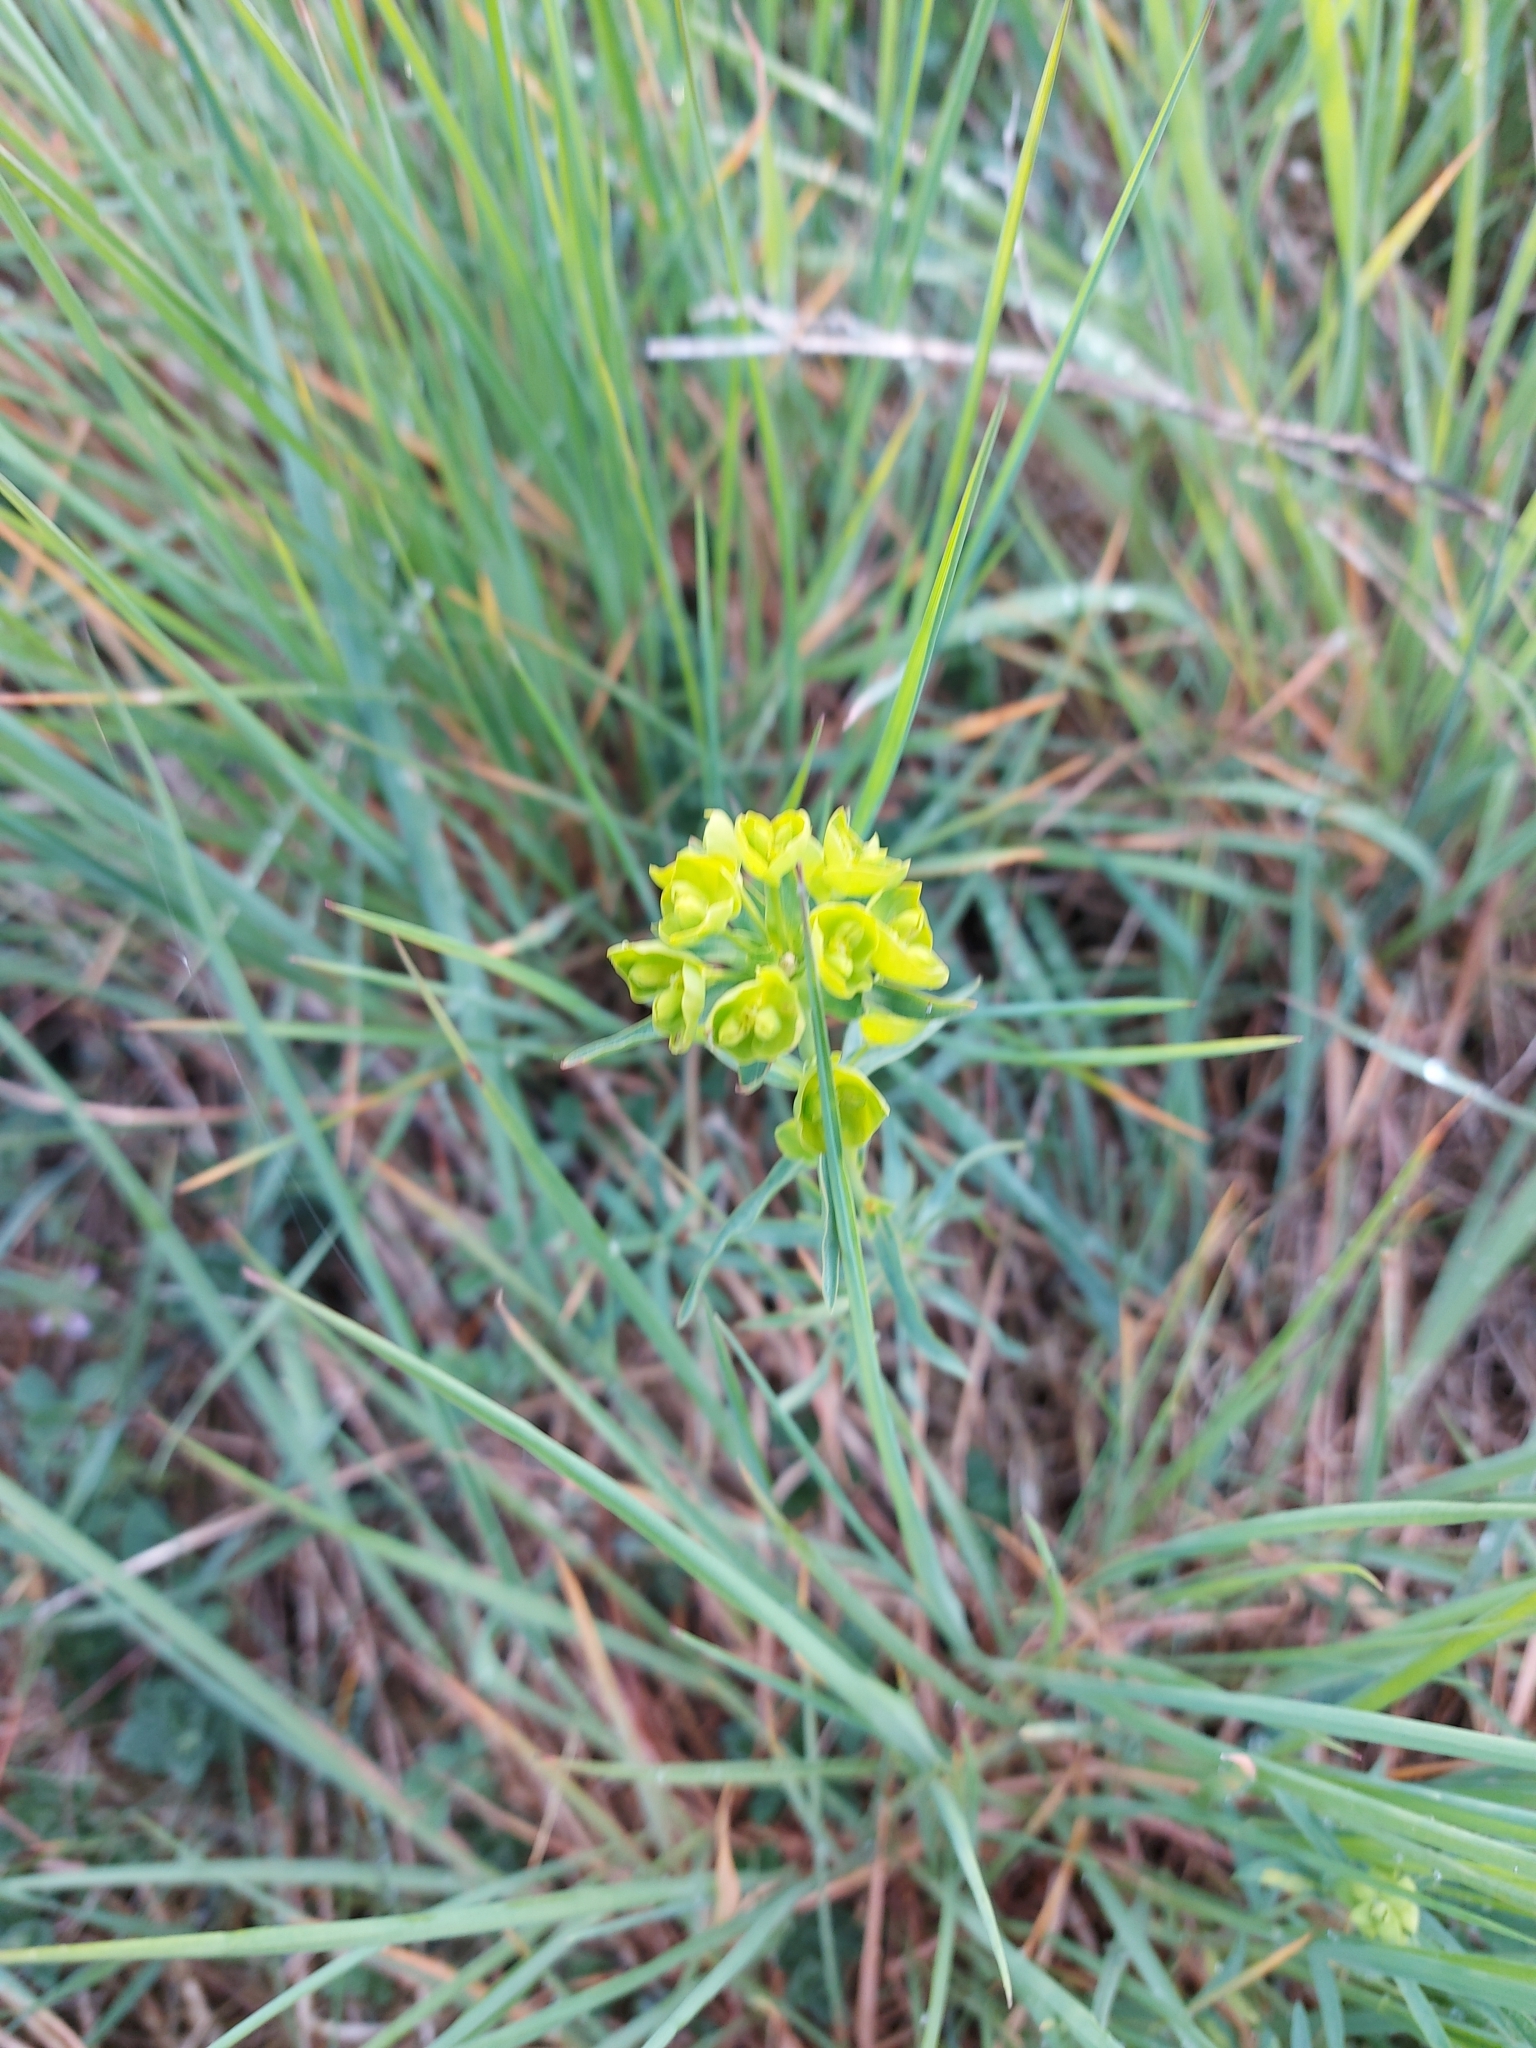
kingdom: Plantae
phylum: Tracheophyta
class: Magnoliopsida
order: Malpighiales
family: Euphorbiaceae
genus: Euphorbia
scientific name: Euphorbia cyparissias
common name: Cypress spurge
